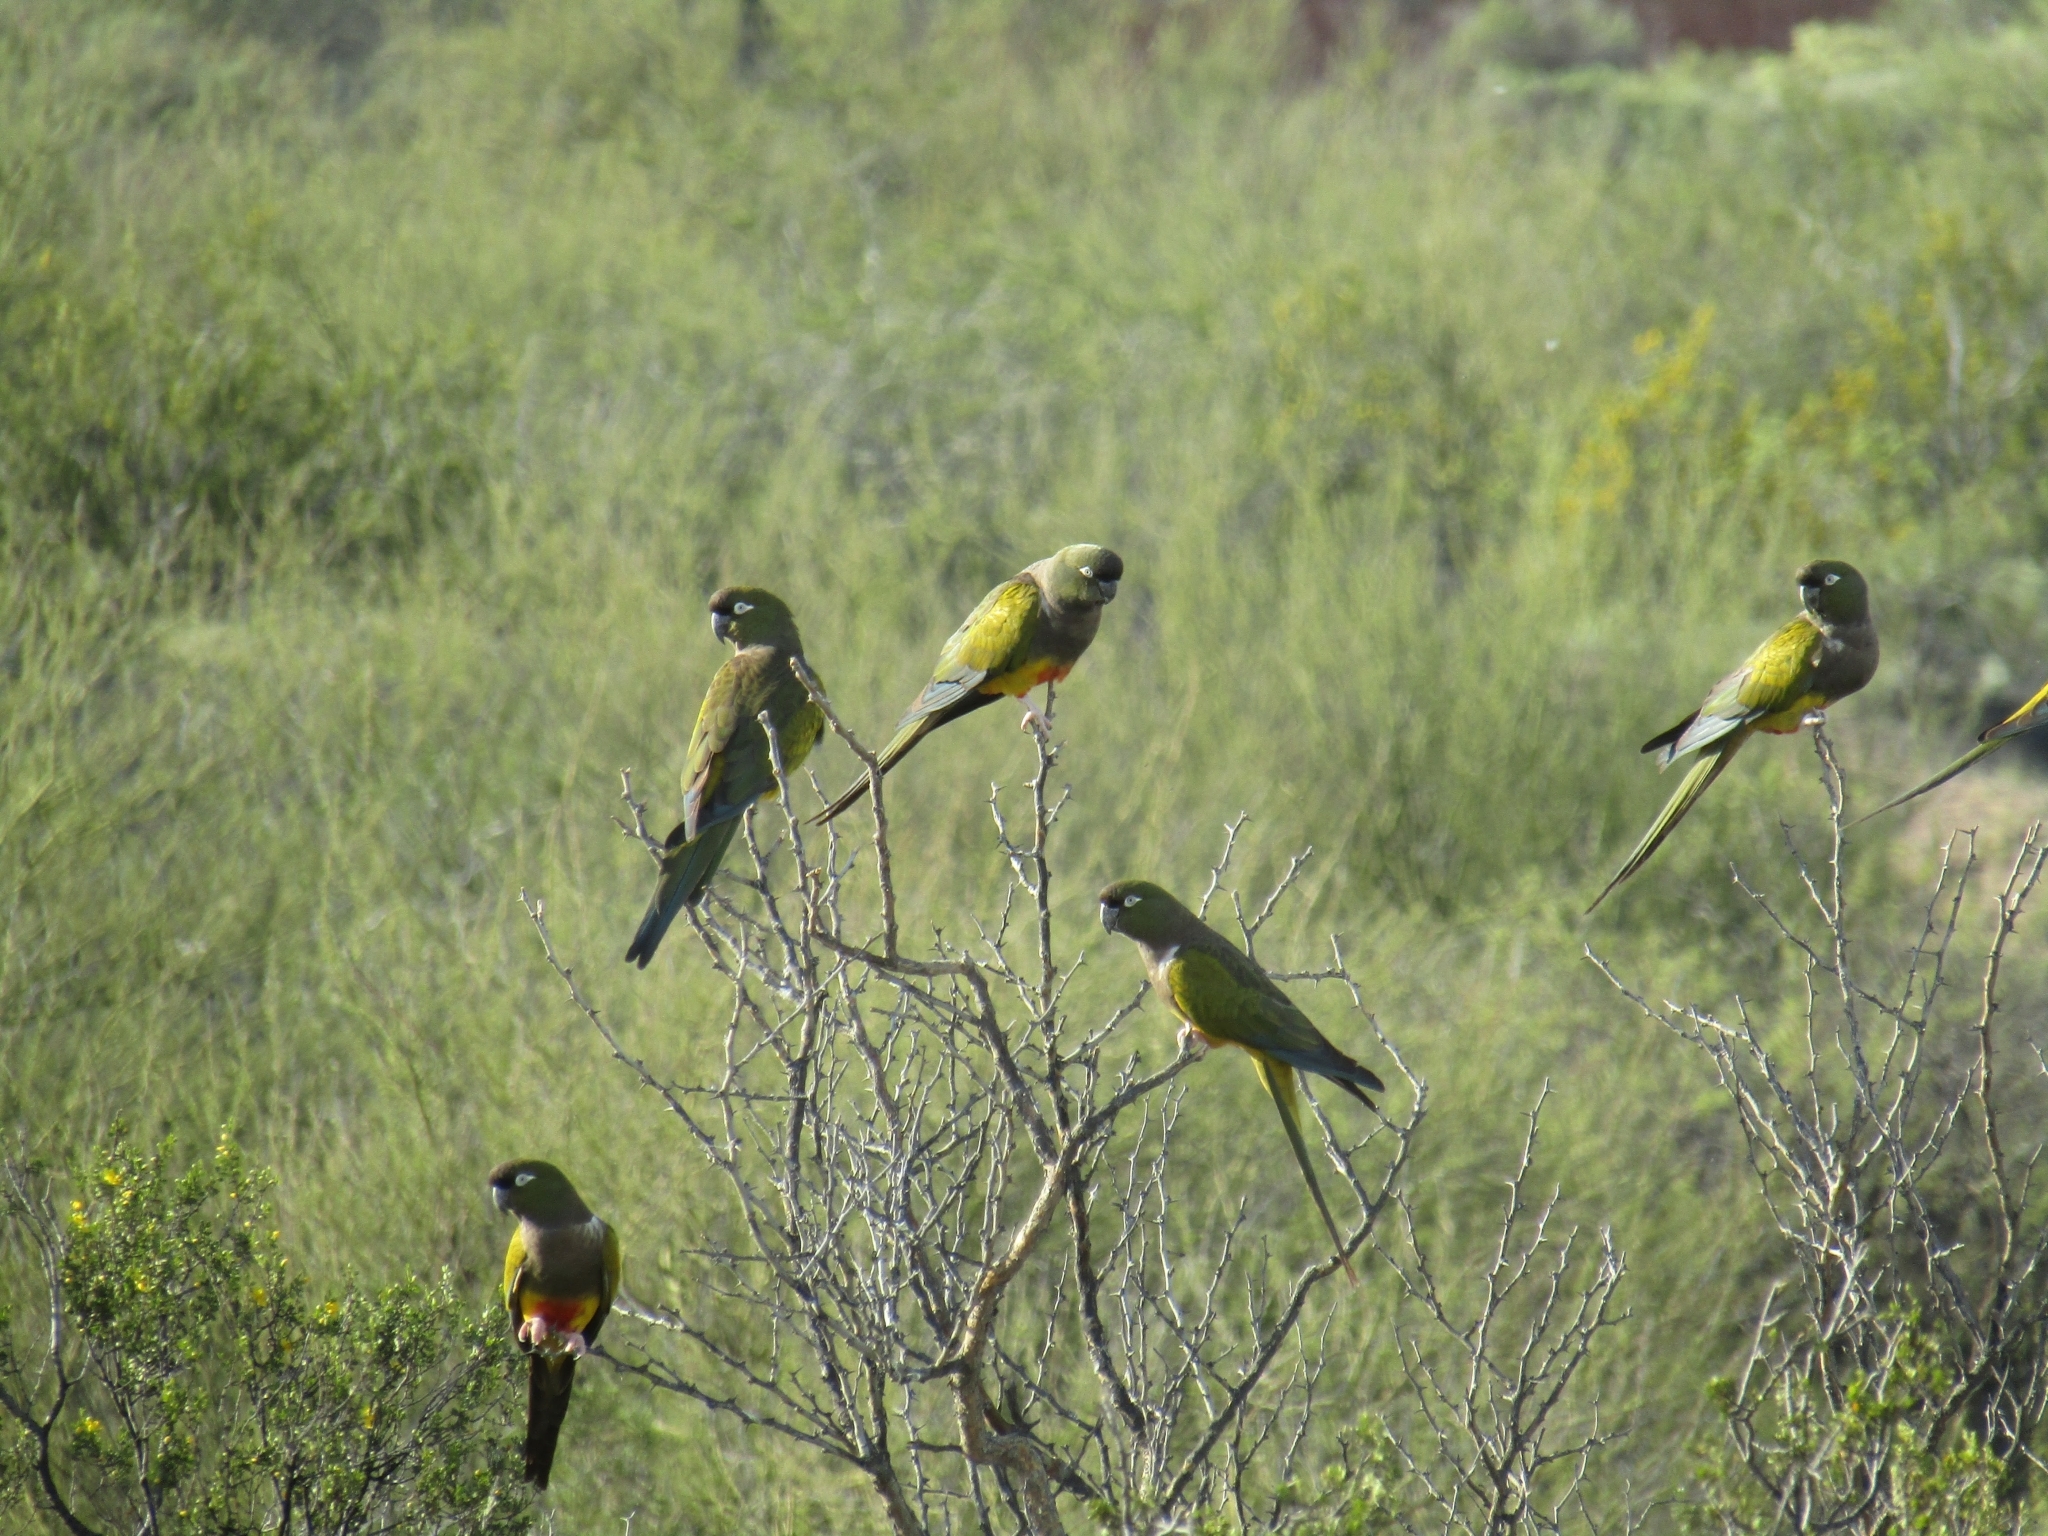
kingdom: Animalia
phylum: Chordata
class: Aves
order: Psittaciformes
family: Psittacidae
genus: Cyanoliseus
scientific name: Cyanoliseus patagonus
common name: Burrowing parrot
